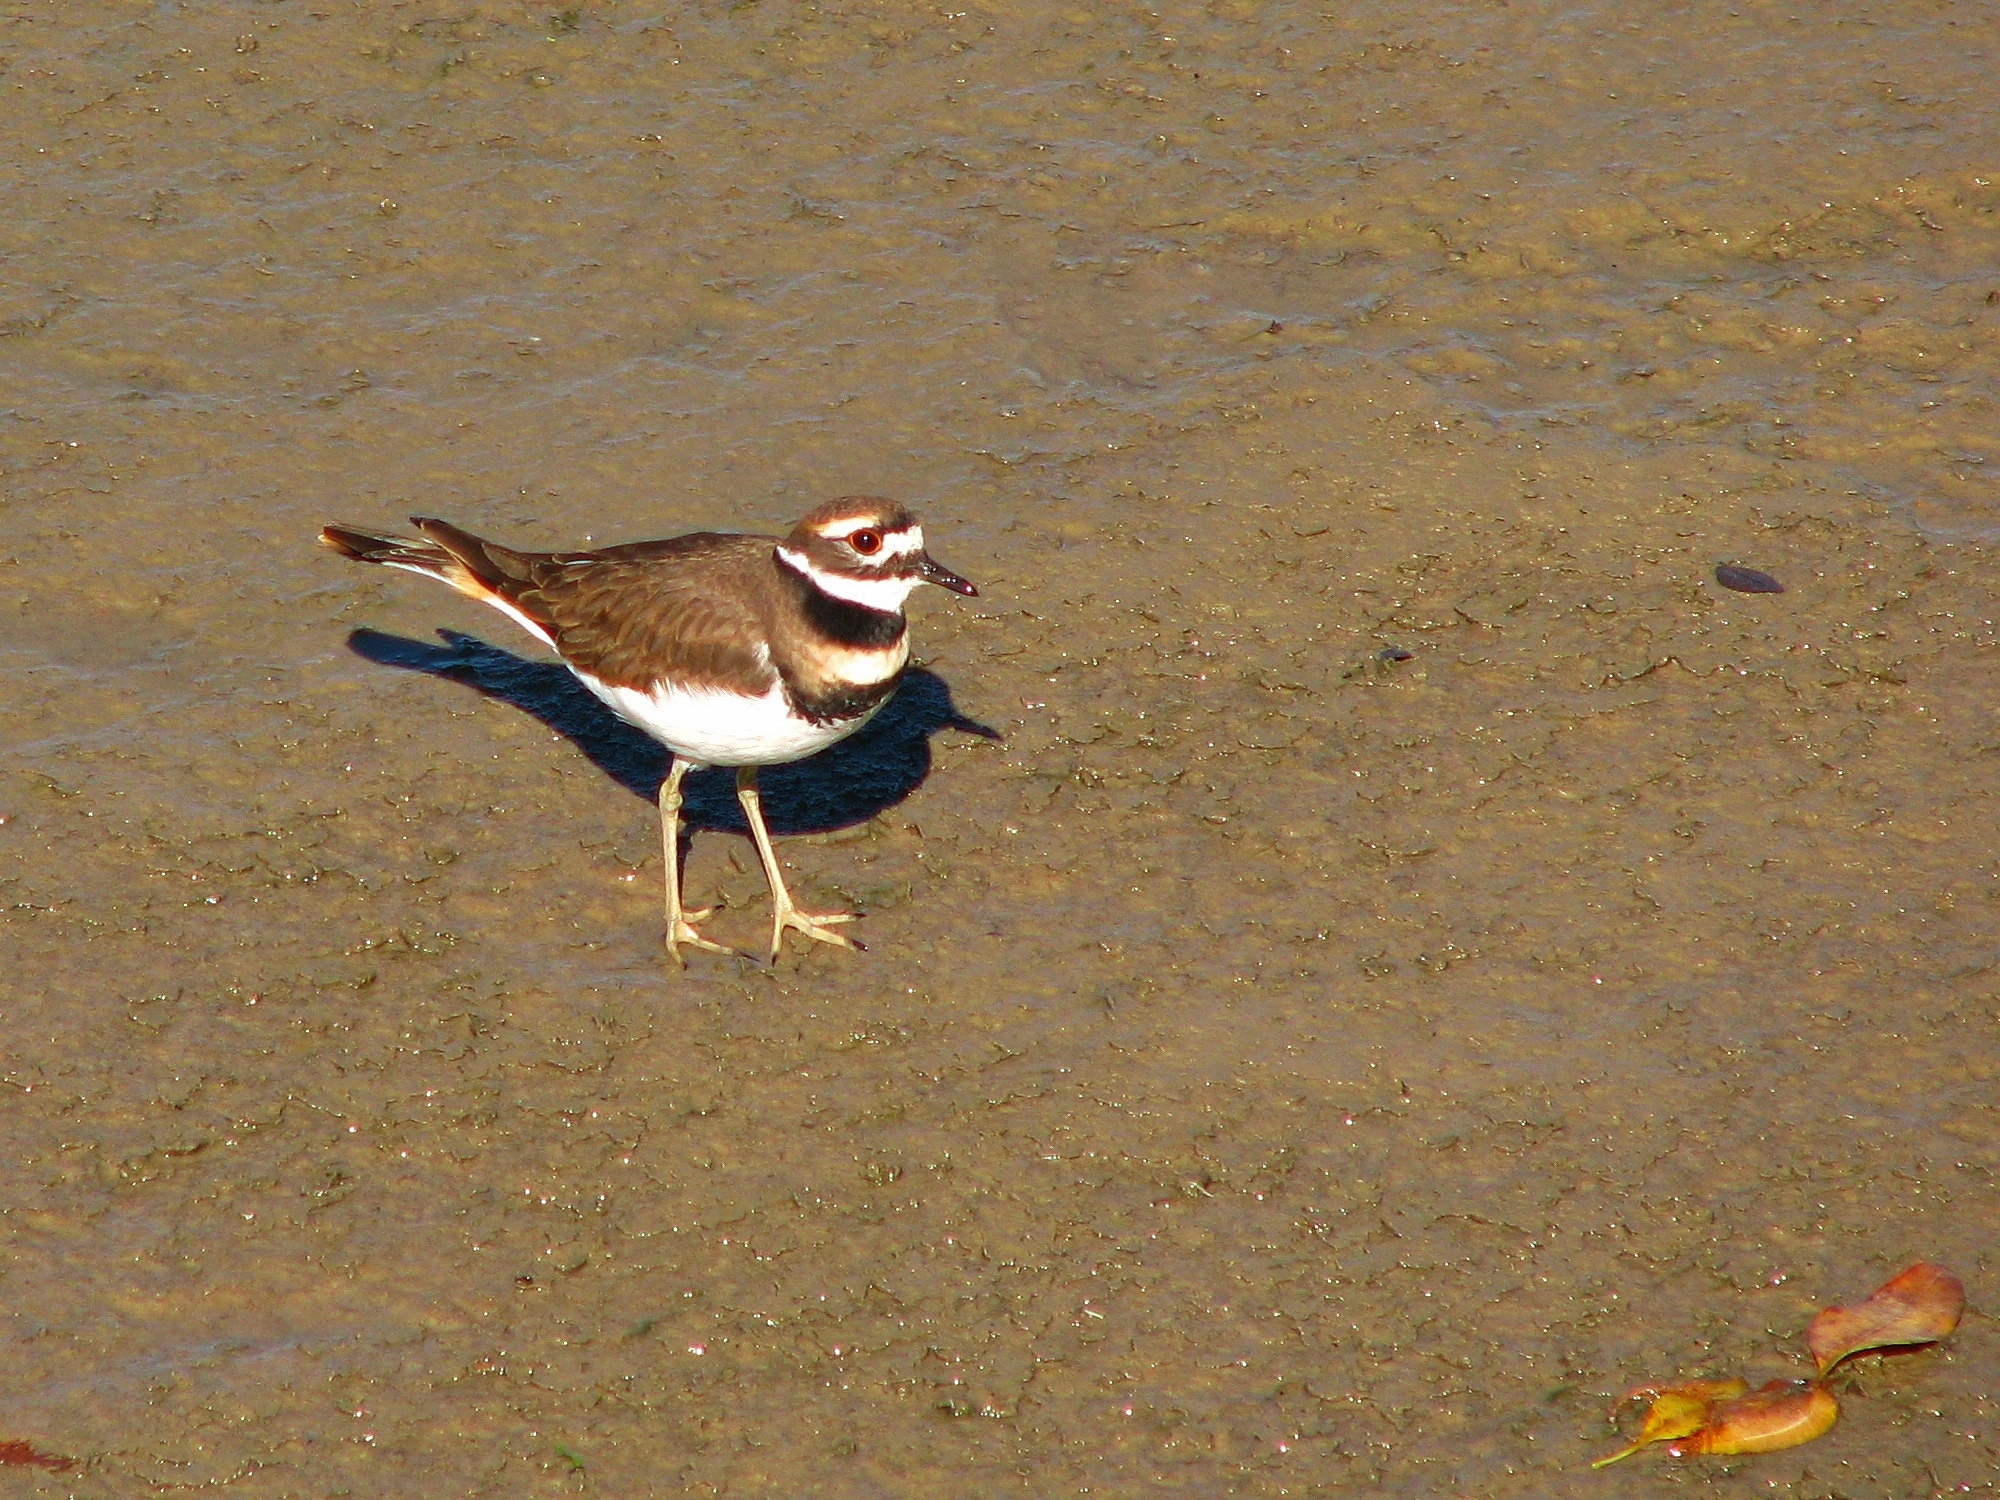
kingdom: Animalia
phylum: Chordata
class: Aves
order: Charadriiformes
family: Charadriidae
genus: Charadrius
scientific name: Charadrius vociferus
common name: Killdeer
